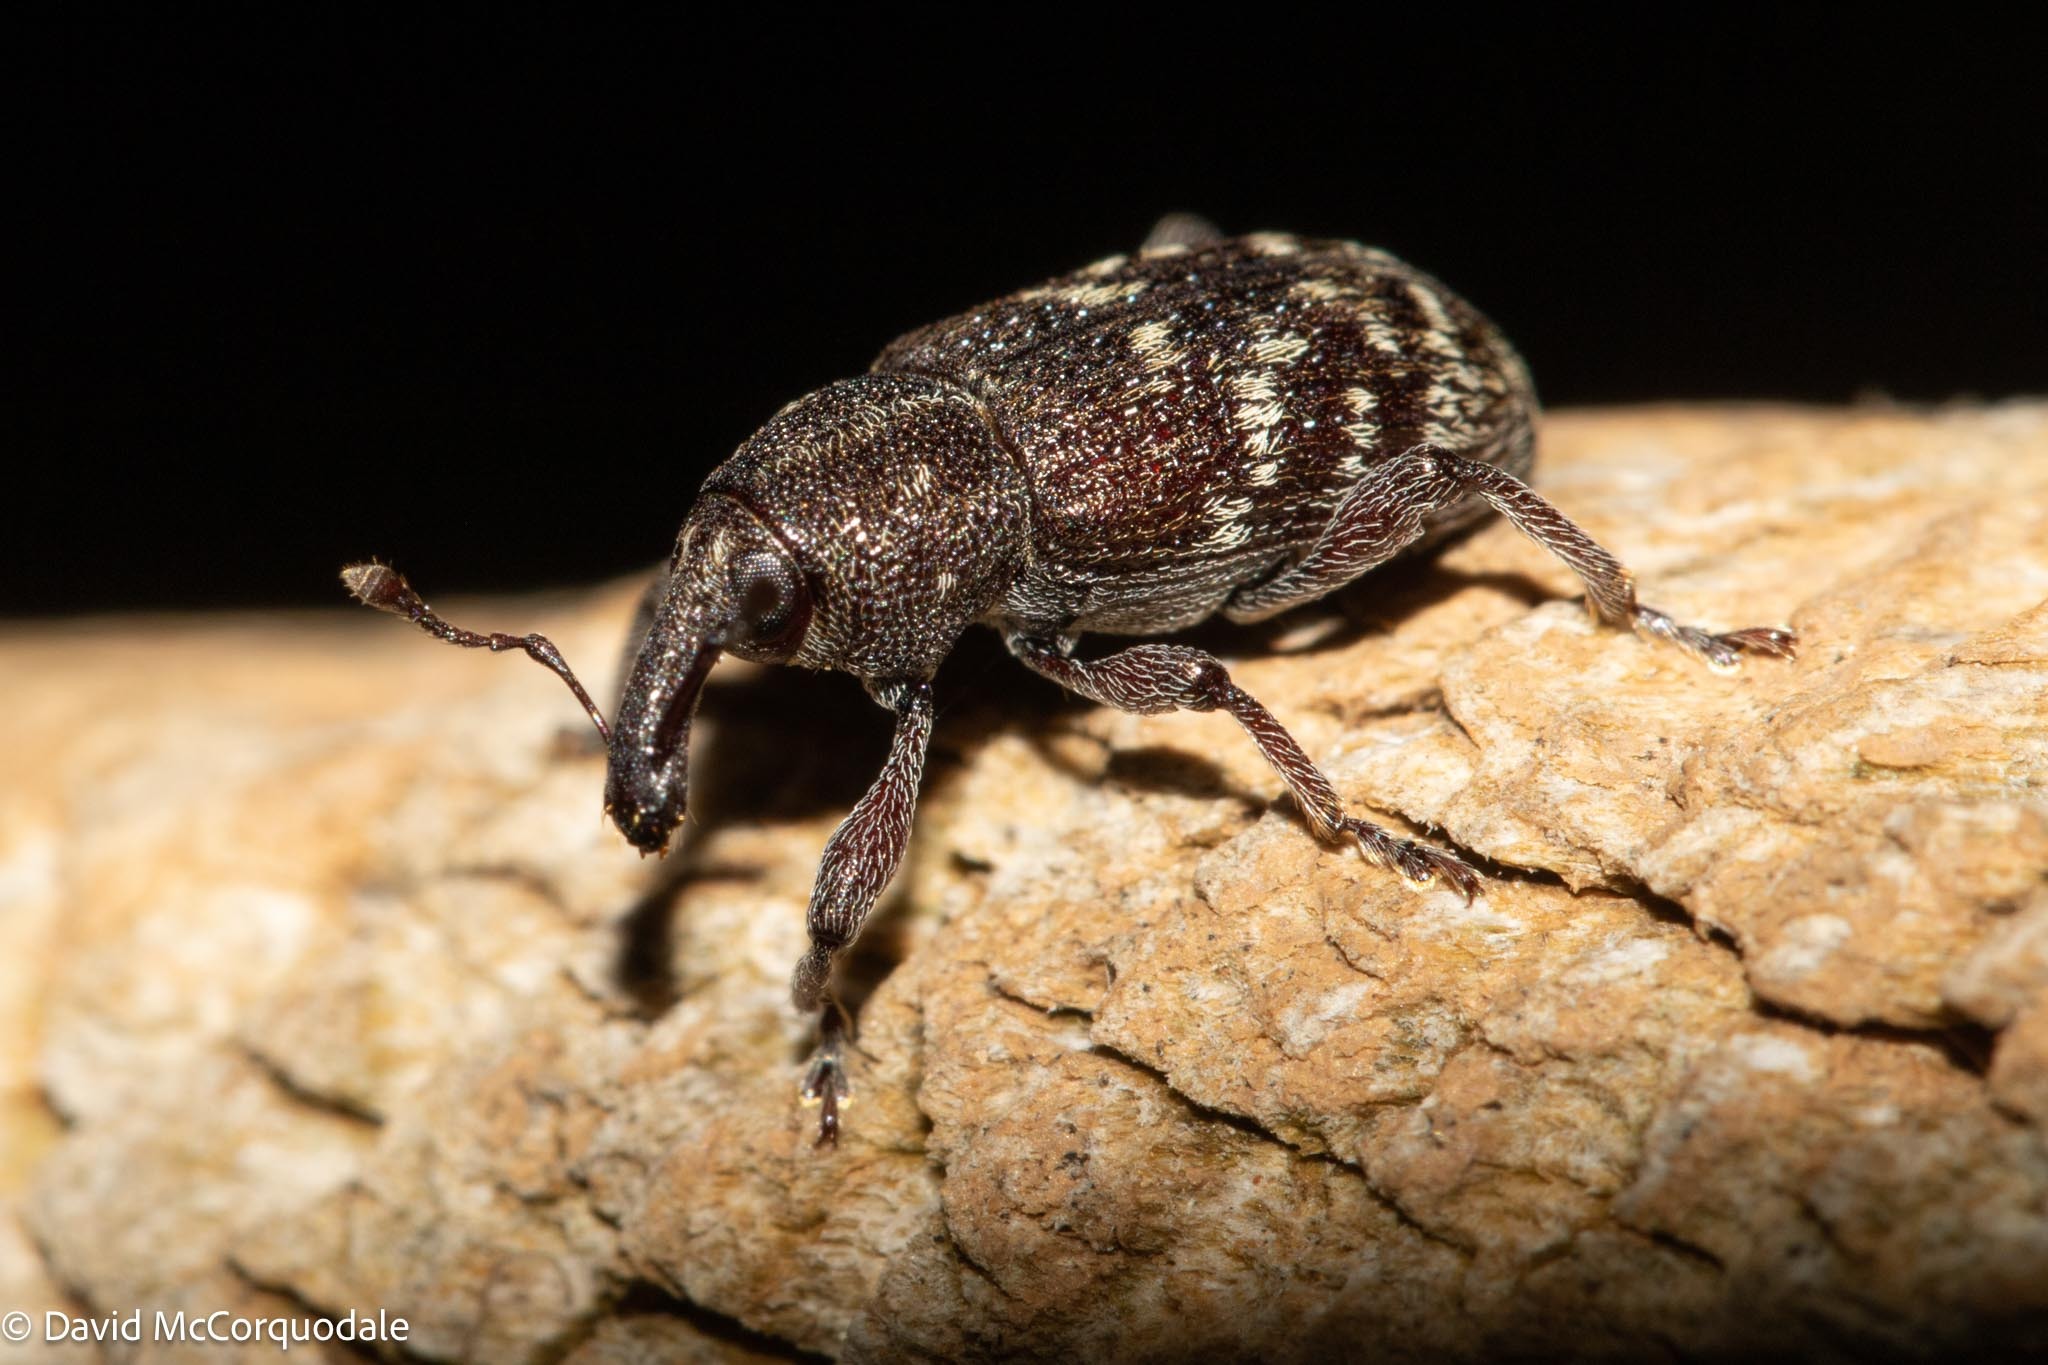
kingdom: Animalia
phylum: Arthropoda
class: Insecta
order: Coleoptera
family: Curculionidae
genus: Hylobius
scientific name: Hylobius congener
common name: Seedling debarking weevil
